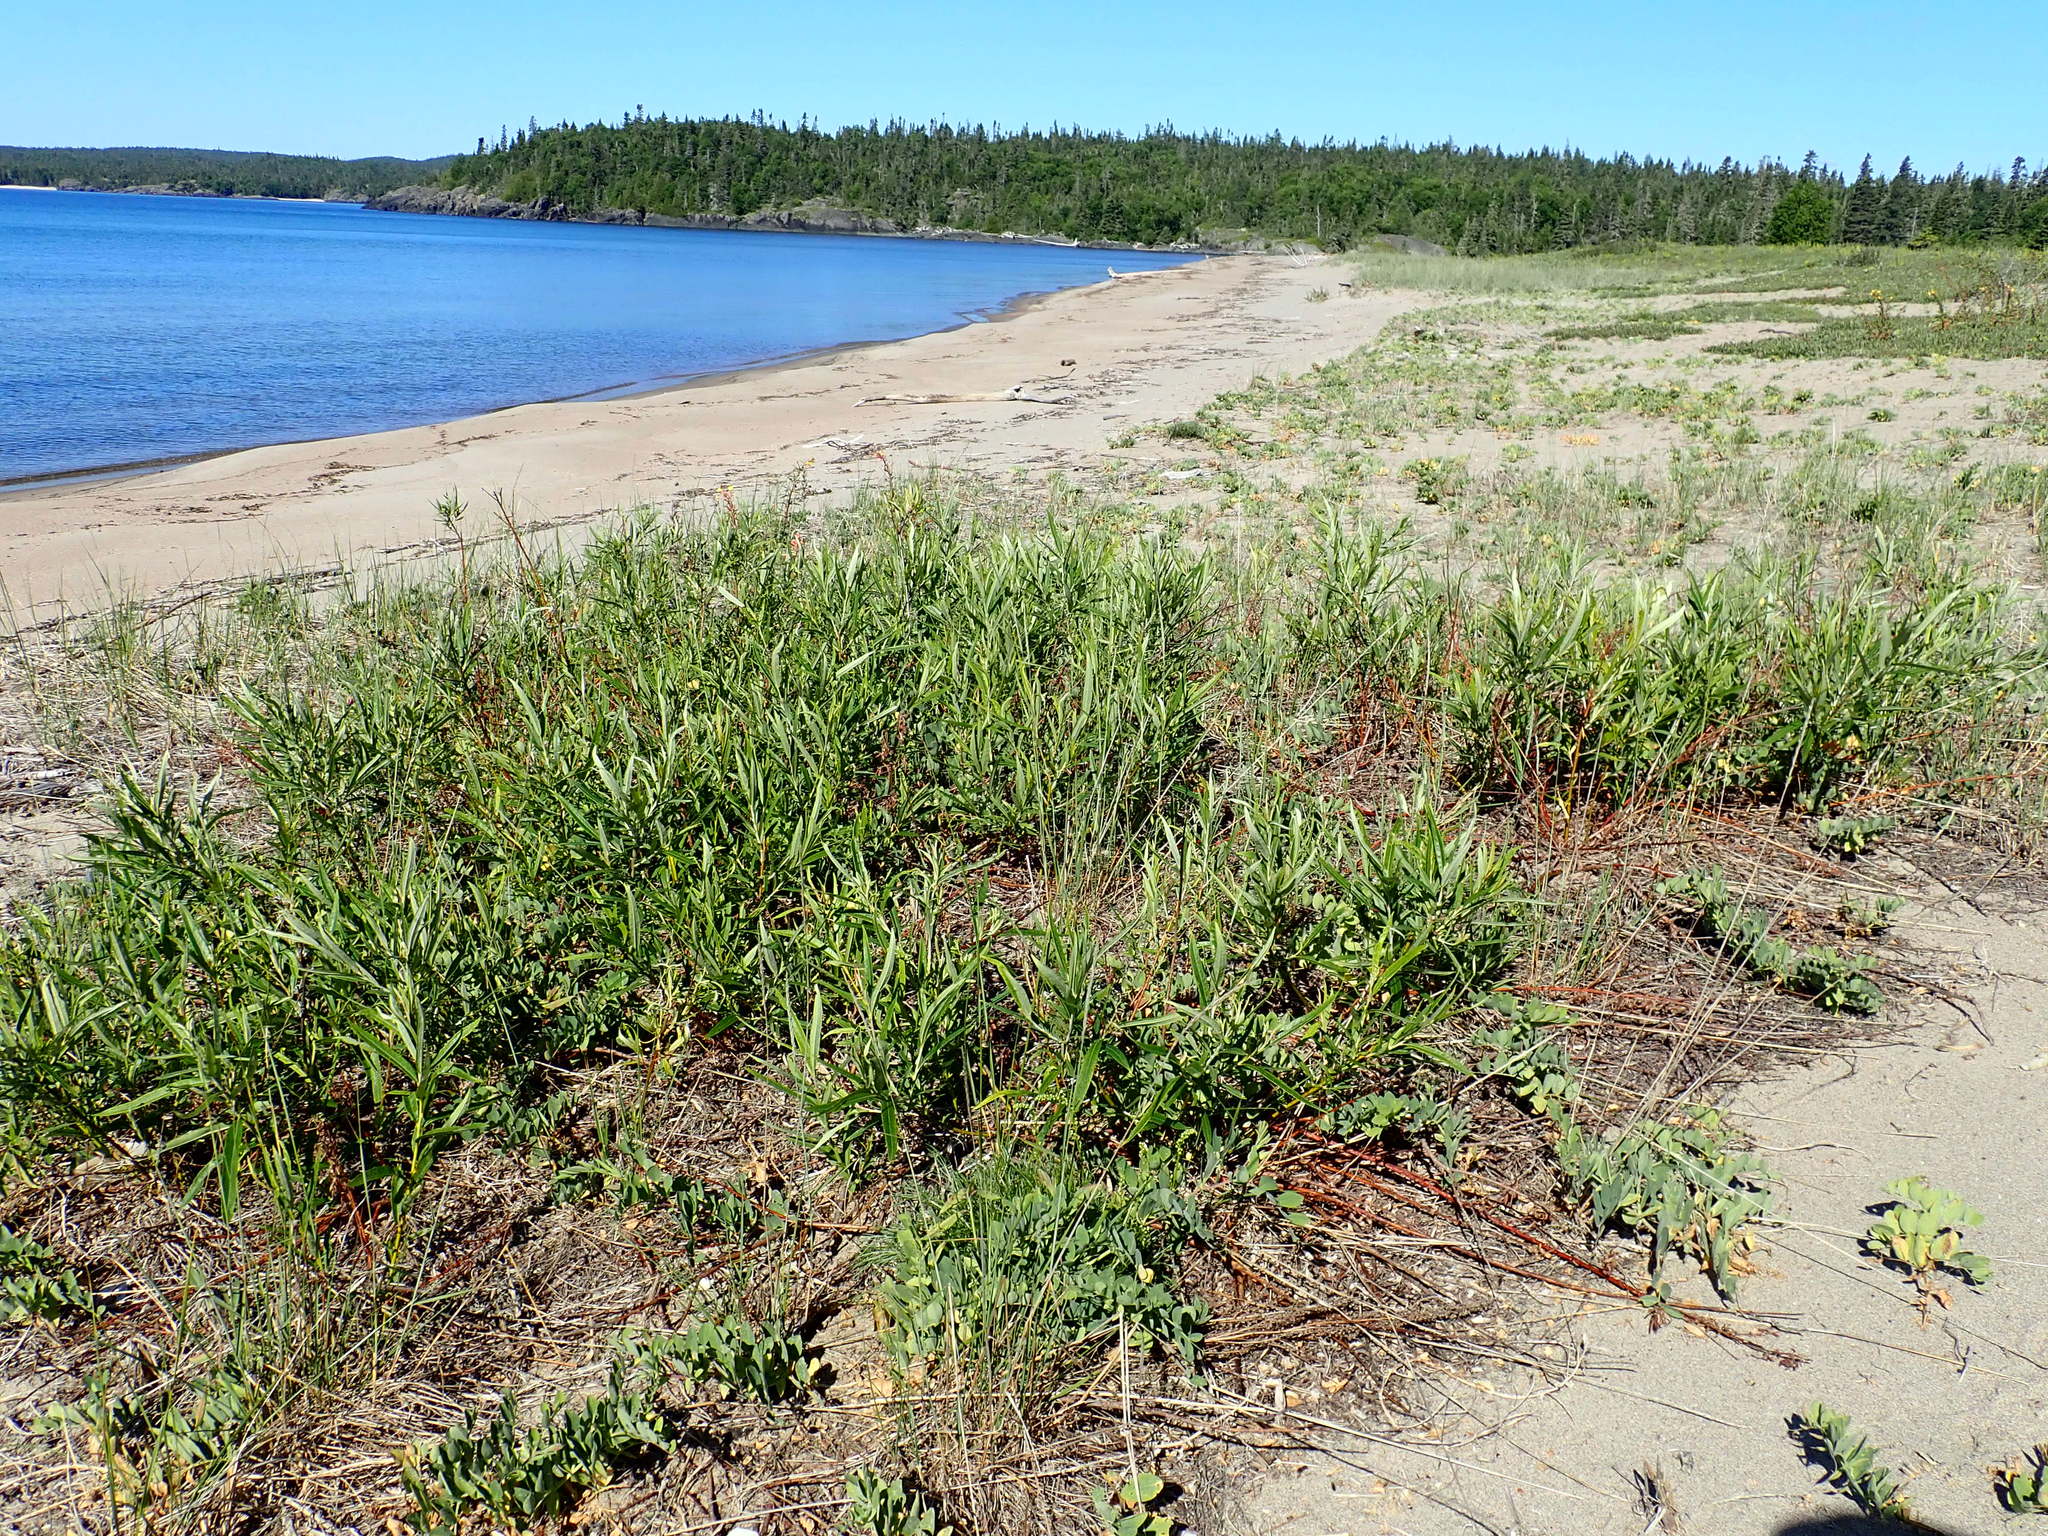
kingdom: Plantae
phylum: Tracheophyta
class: Magnoliopsida
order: Malpighiales
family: Salicaceae
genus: Salix
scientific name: Salix pellita
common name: Satiny willow
